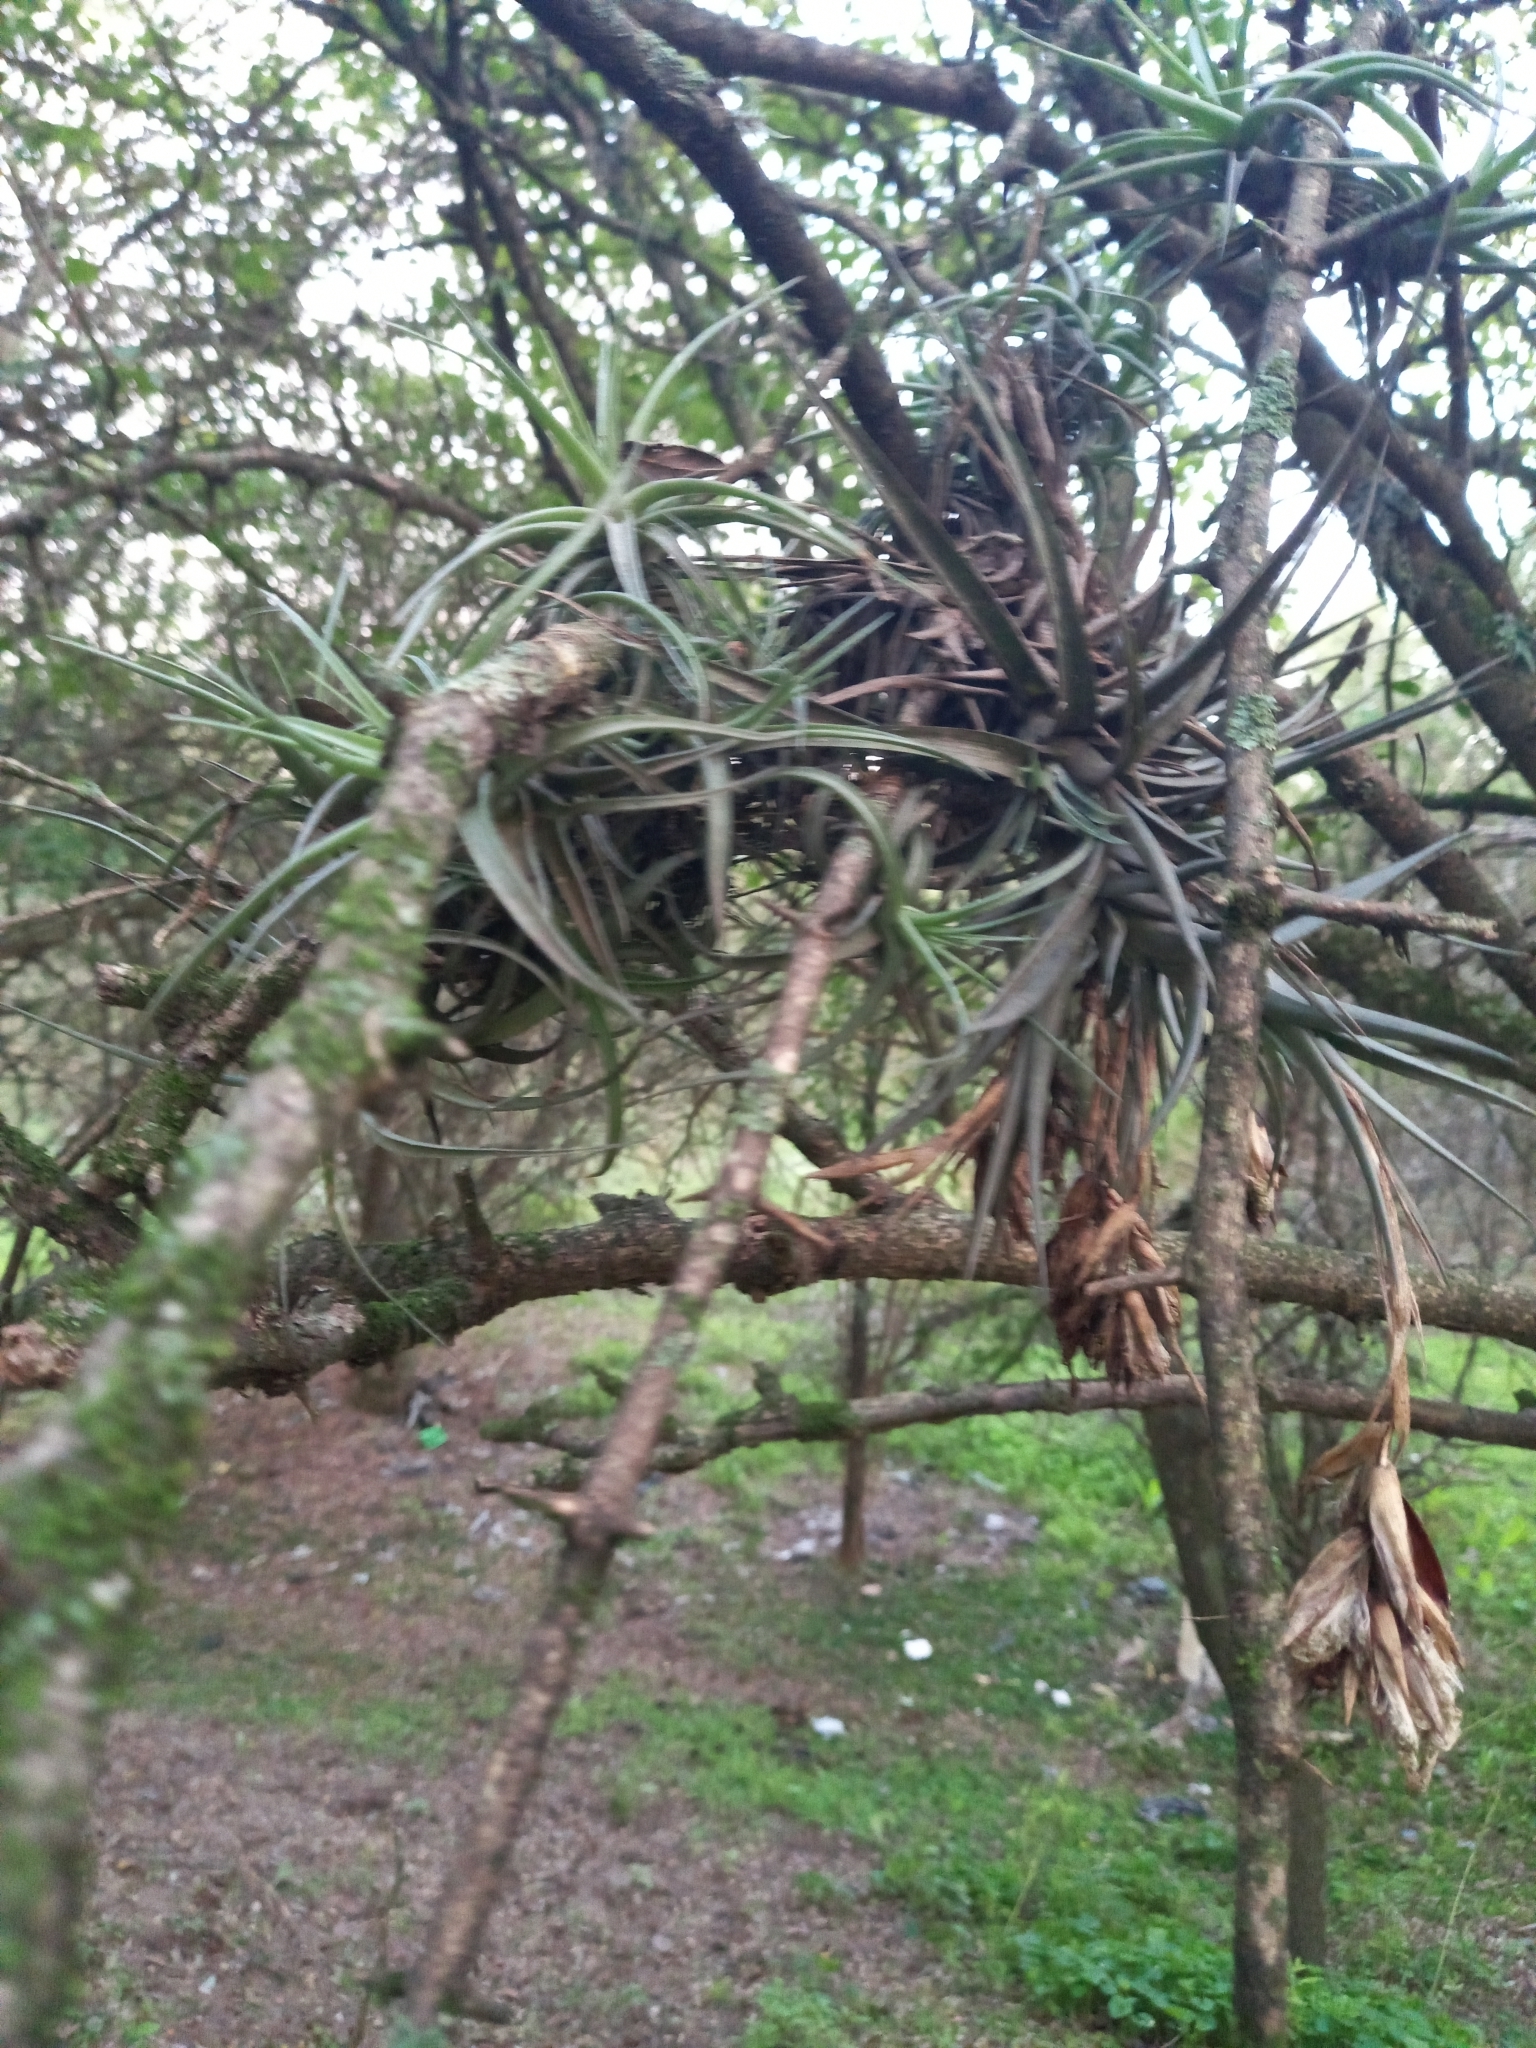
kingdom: Plantae
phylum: Tracheophyta
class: Liliopsida
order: Poales
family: Bromeliaceae
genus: Tillandsia
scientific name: Tillandsia aeranthos
